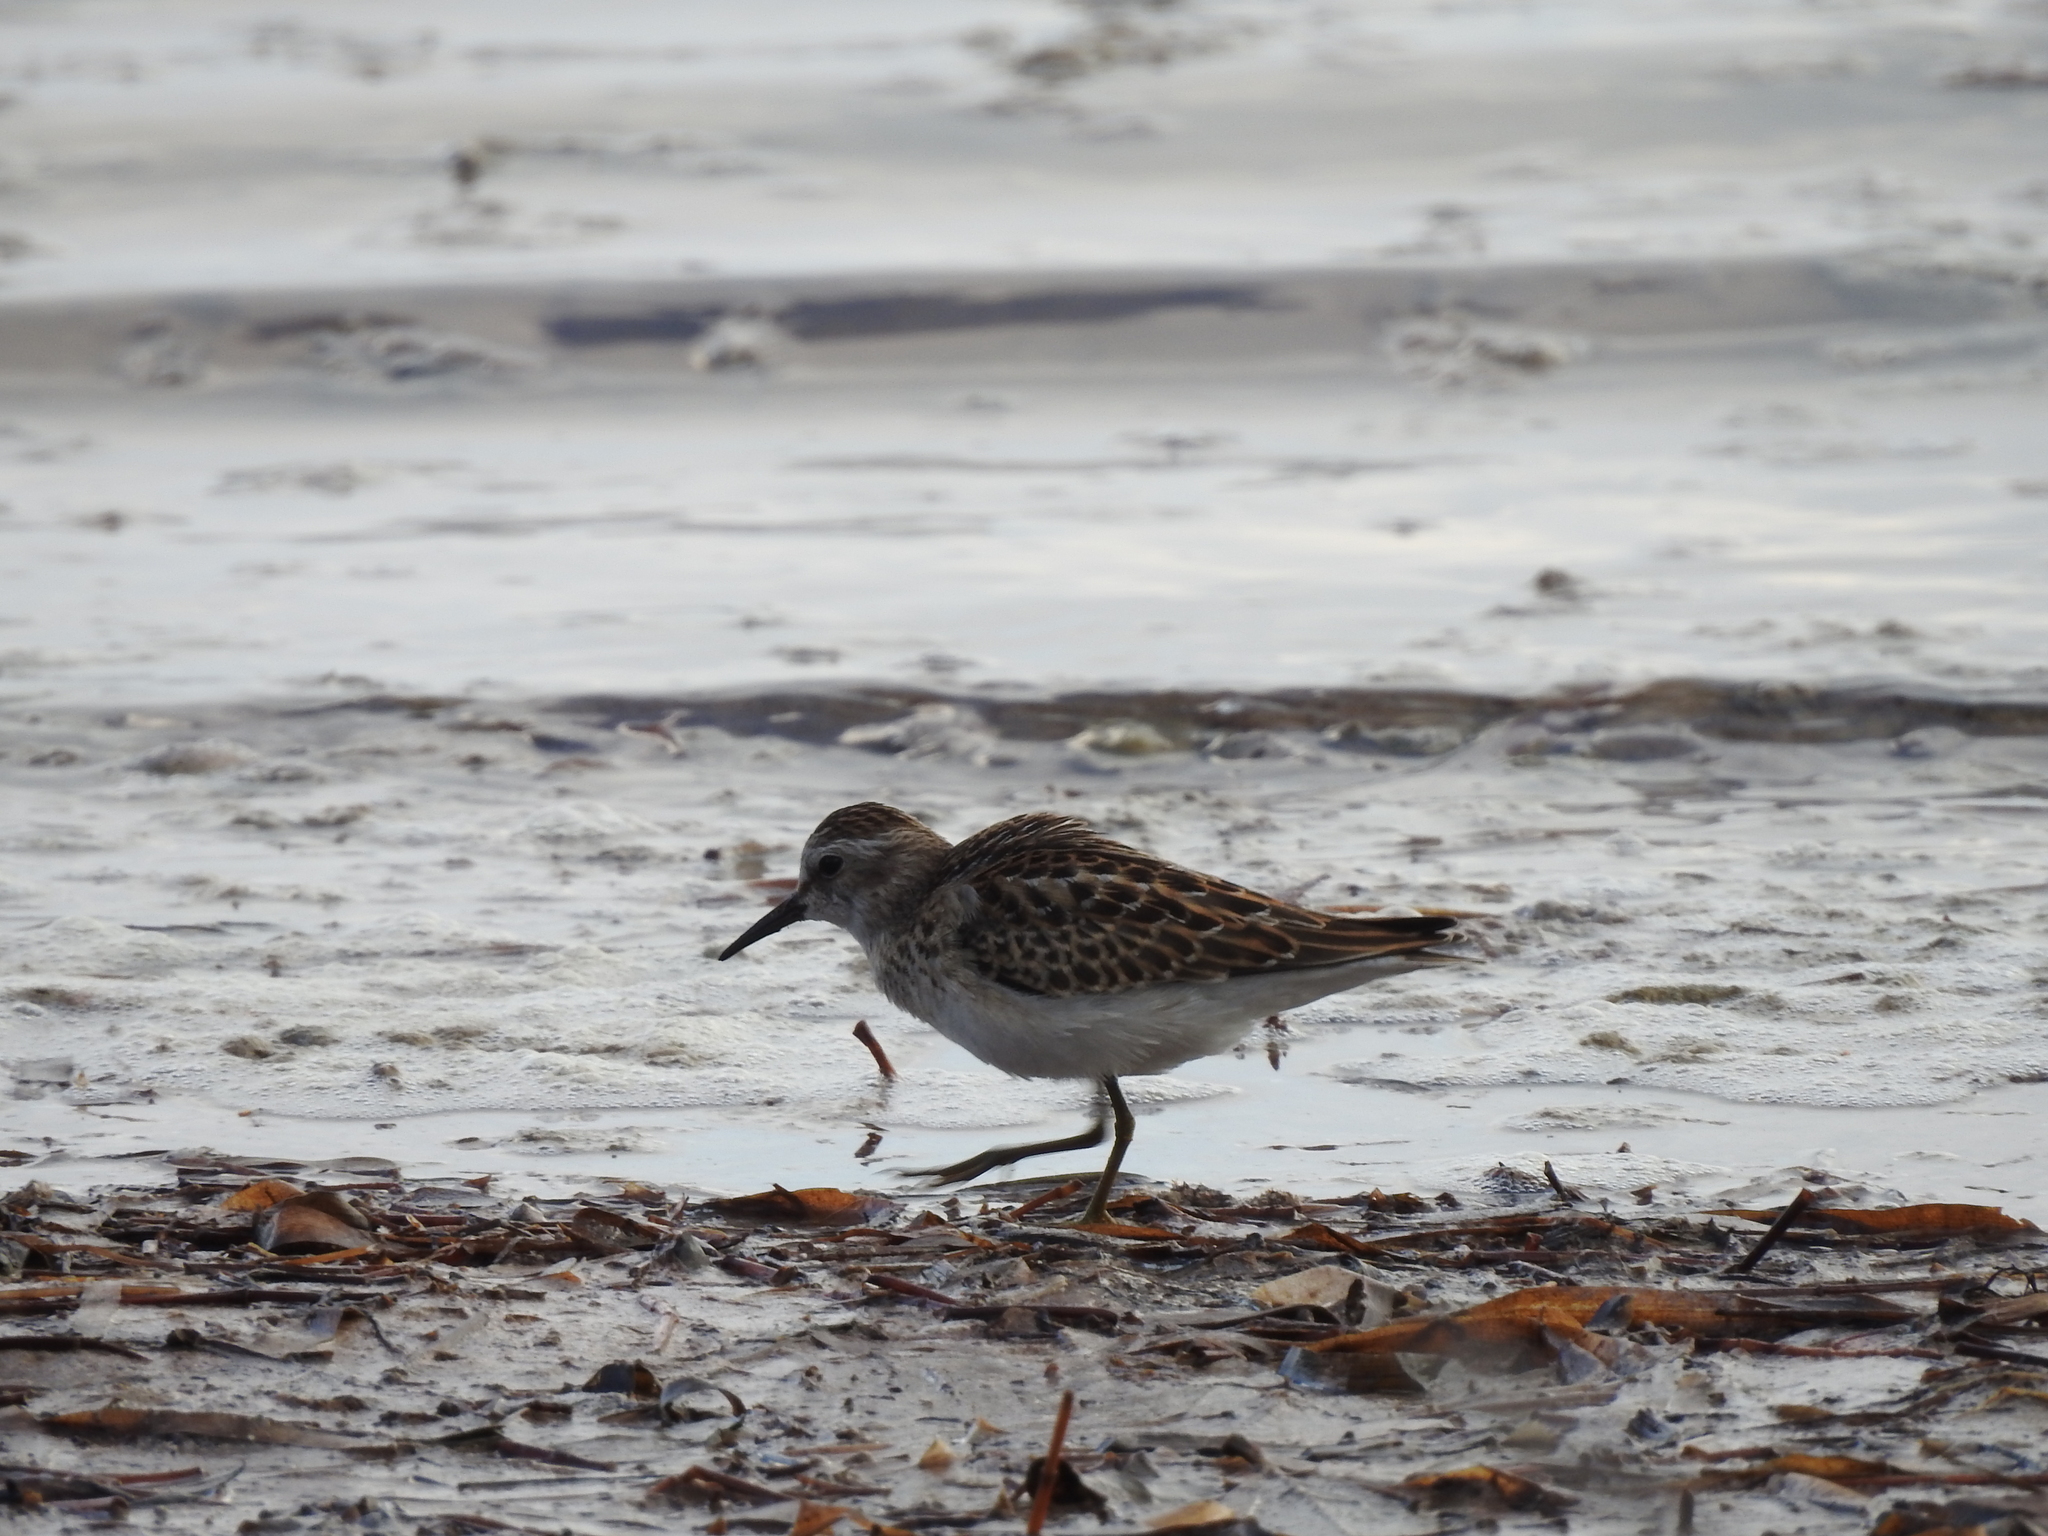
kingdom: Animalia
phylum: Chordata
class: Aves
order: Charadriiformes
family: Scolopacidae
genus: Calidris
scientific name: Calidris minutilla
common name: Least sandpiper
